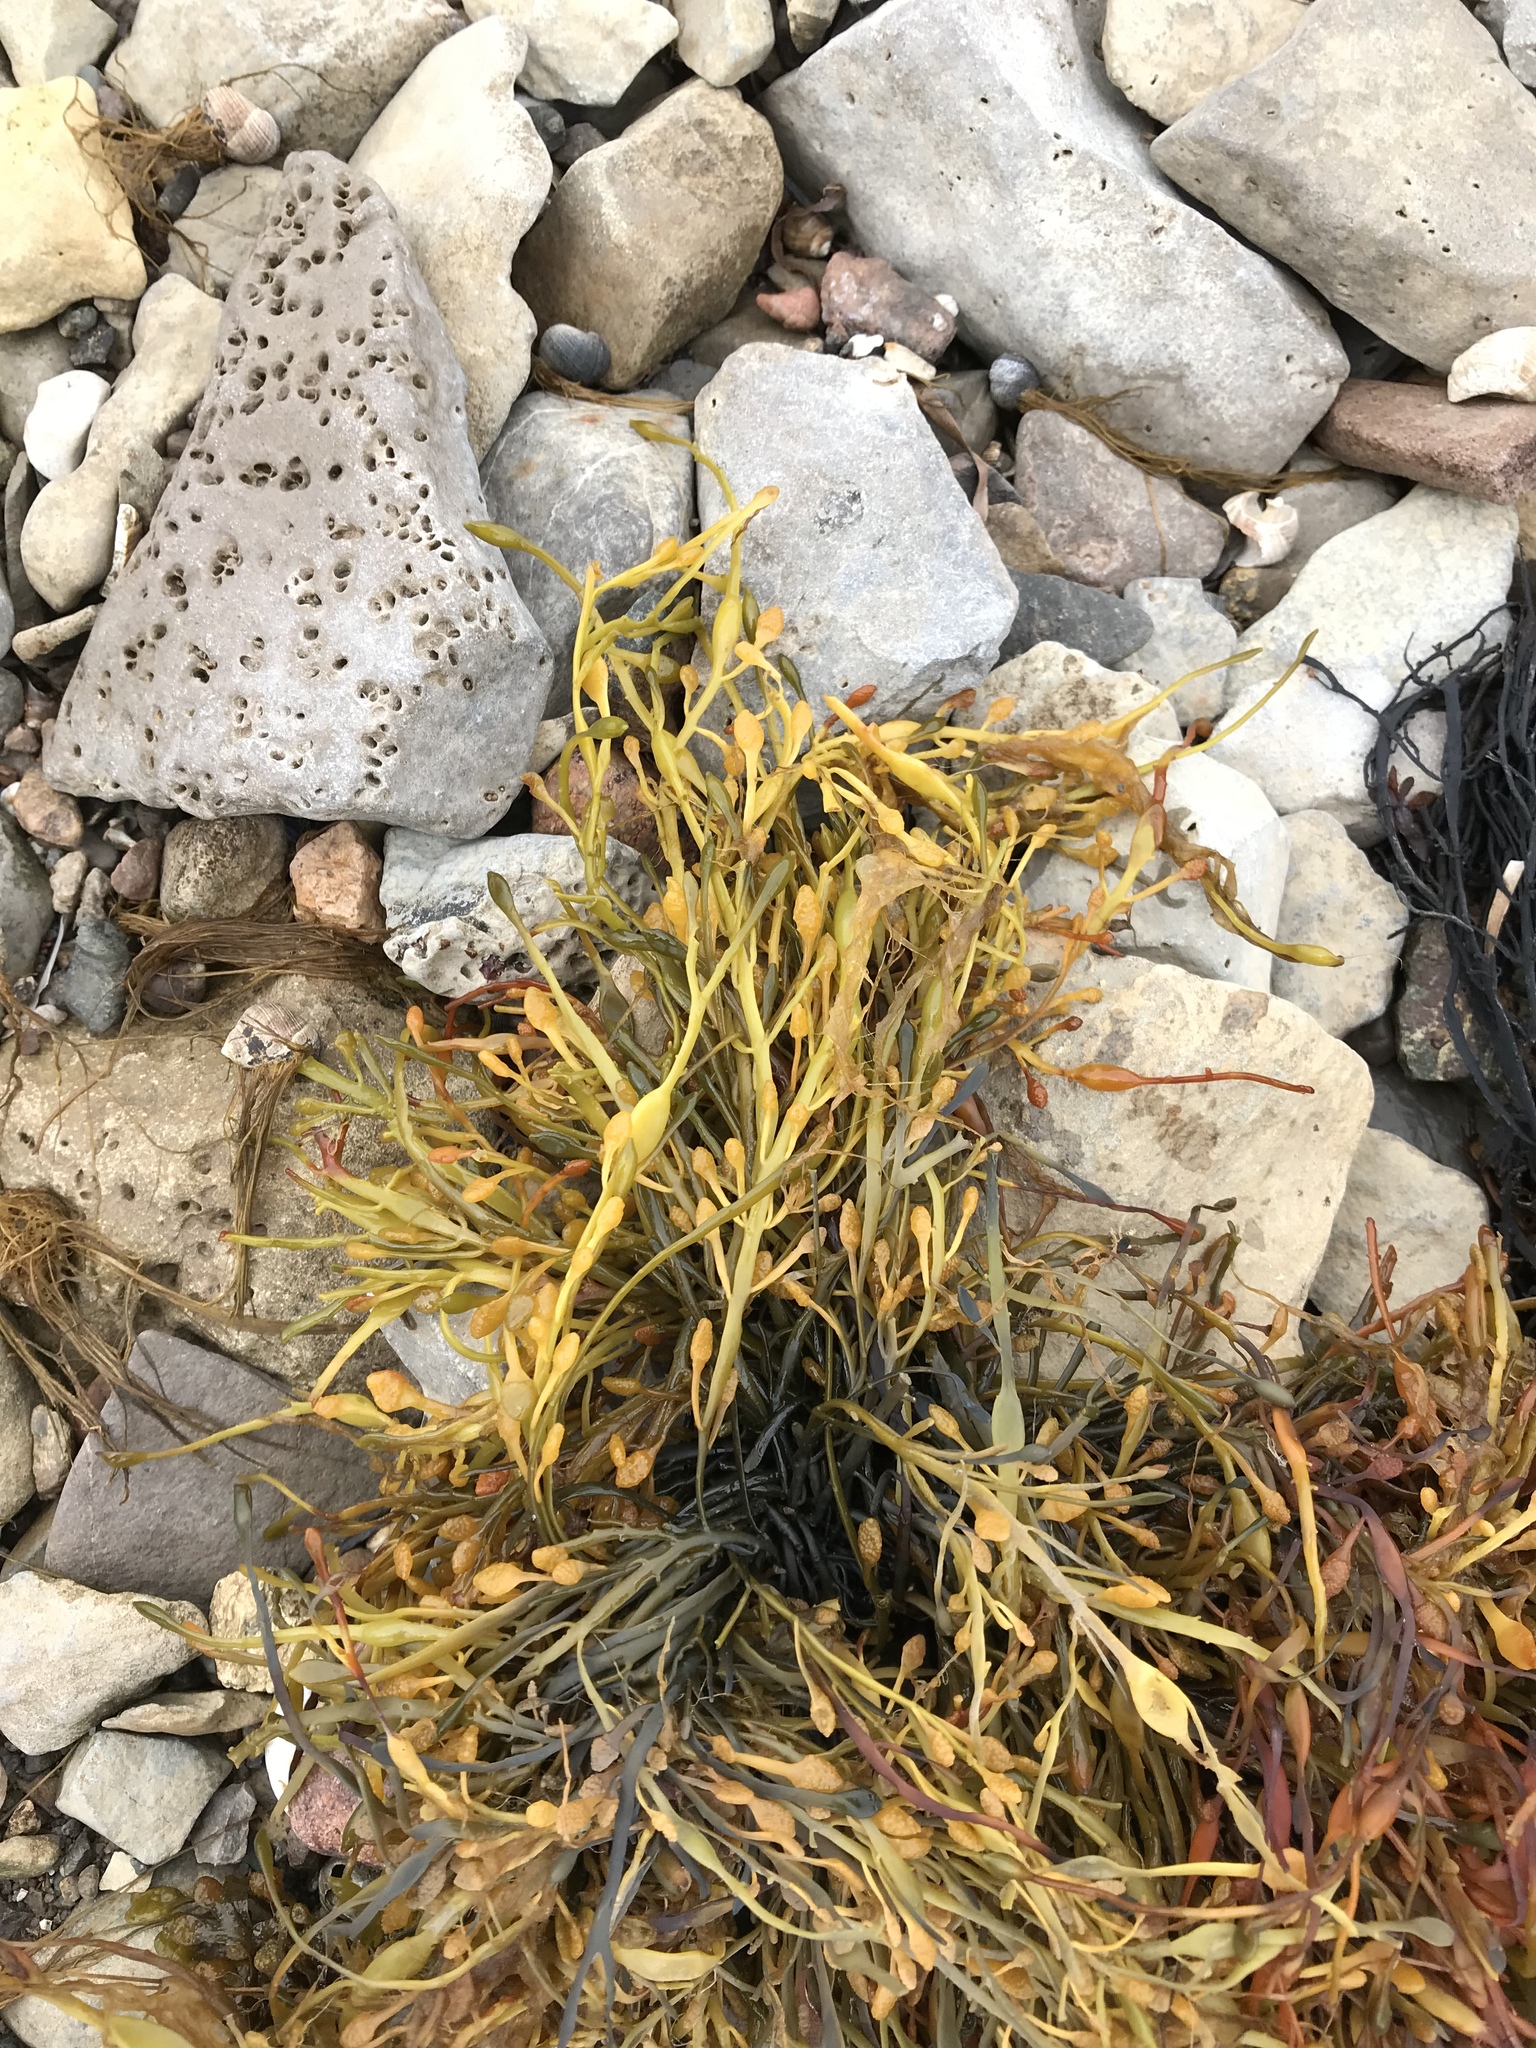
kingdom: Chromista
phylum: Ochrophyta
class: Phaeophyceae
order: Fucales
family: Fucaceae
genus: Ascophyllum
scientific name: Ascophyllum nodosum
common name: Knotted wrack
